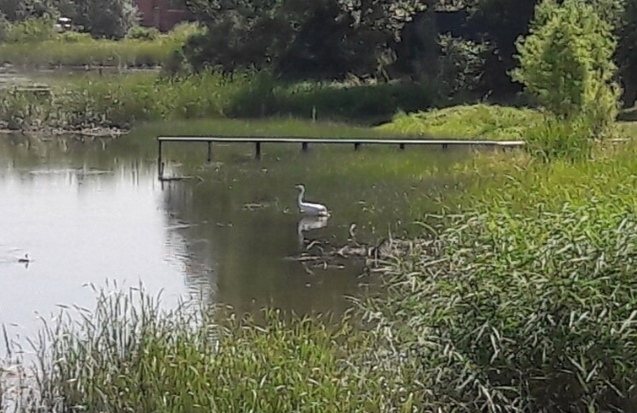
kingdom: Animalia
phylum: Chordata
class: Aves
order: Pelecaniformes
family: Ardeidae
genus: Ardea
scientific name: Ardea alba
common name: Great egret
